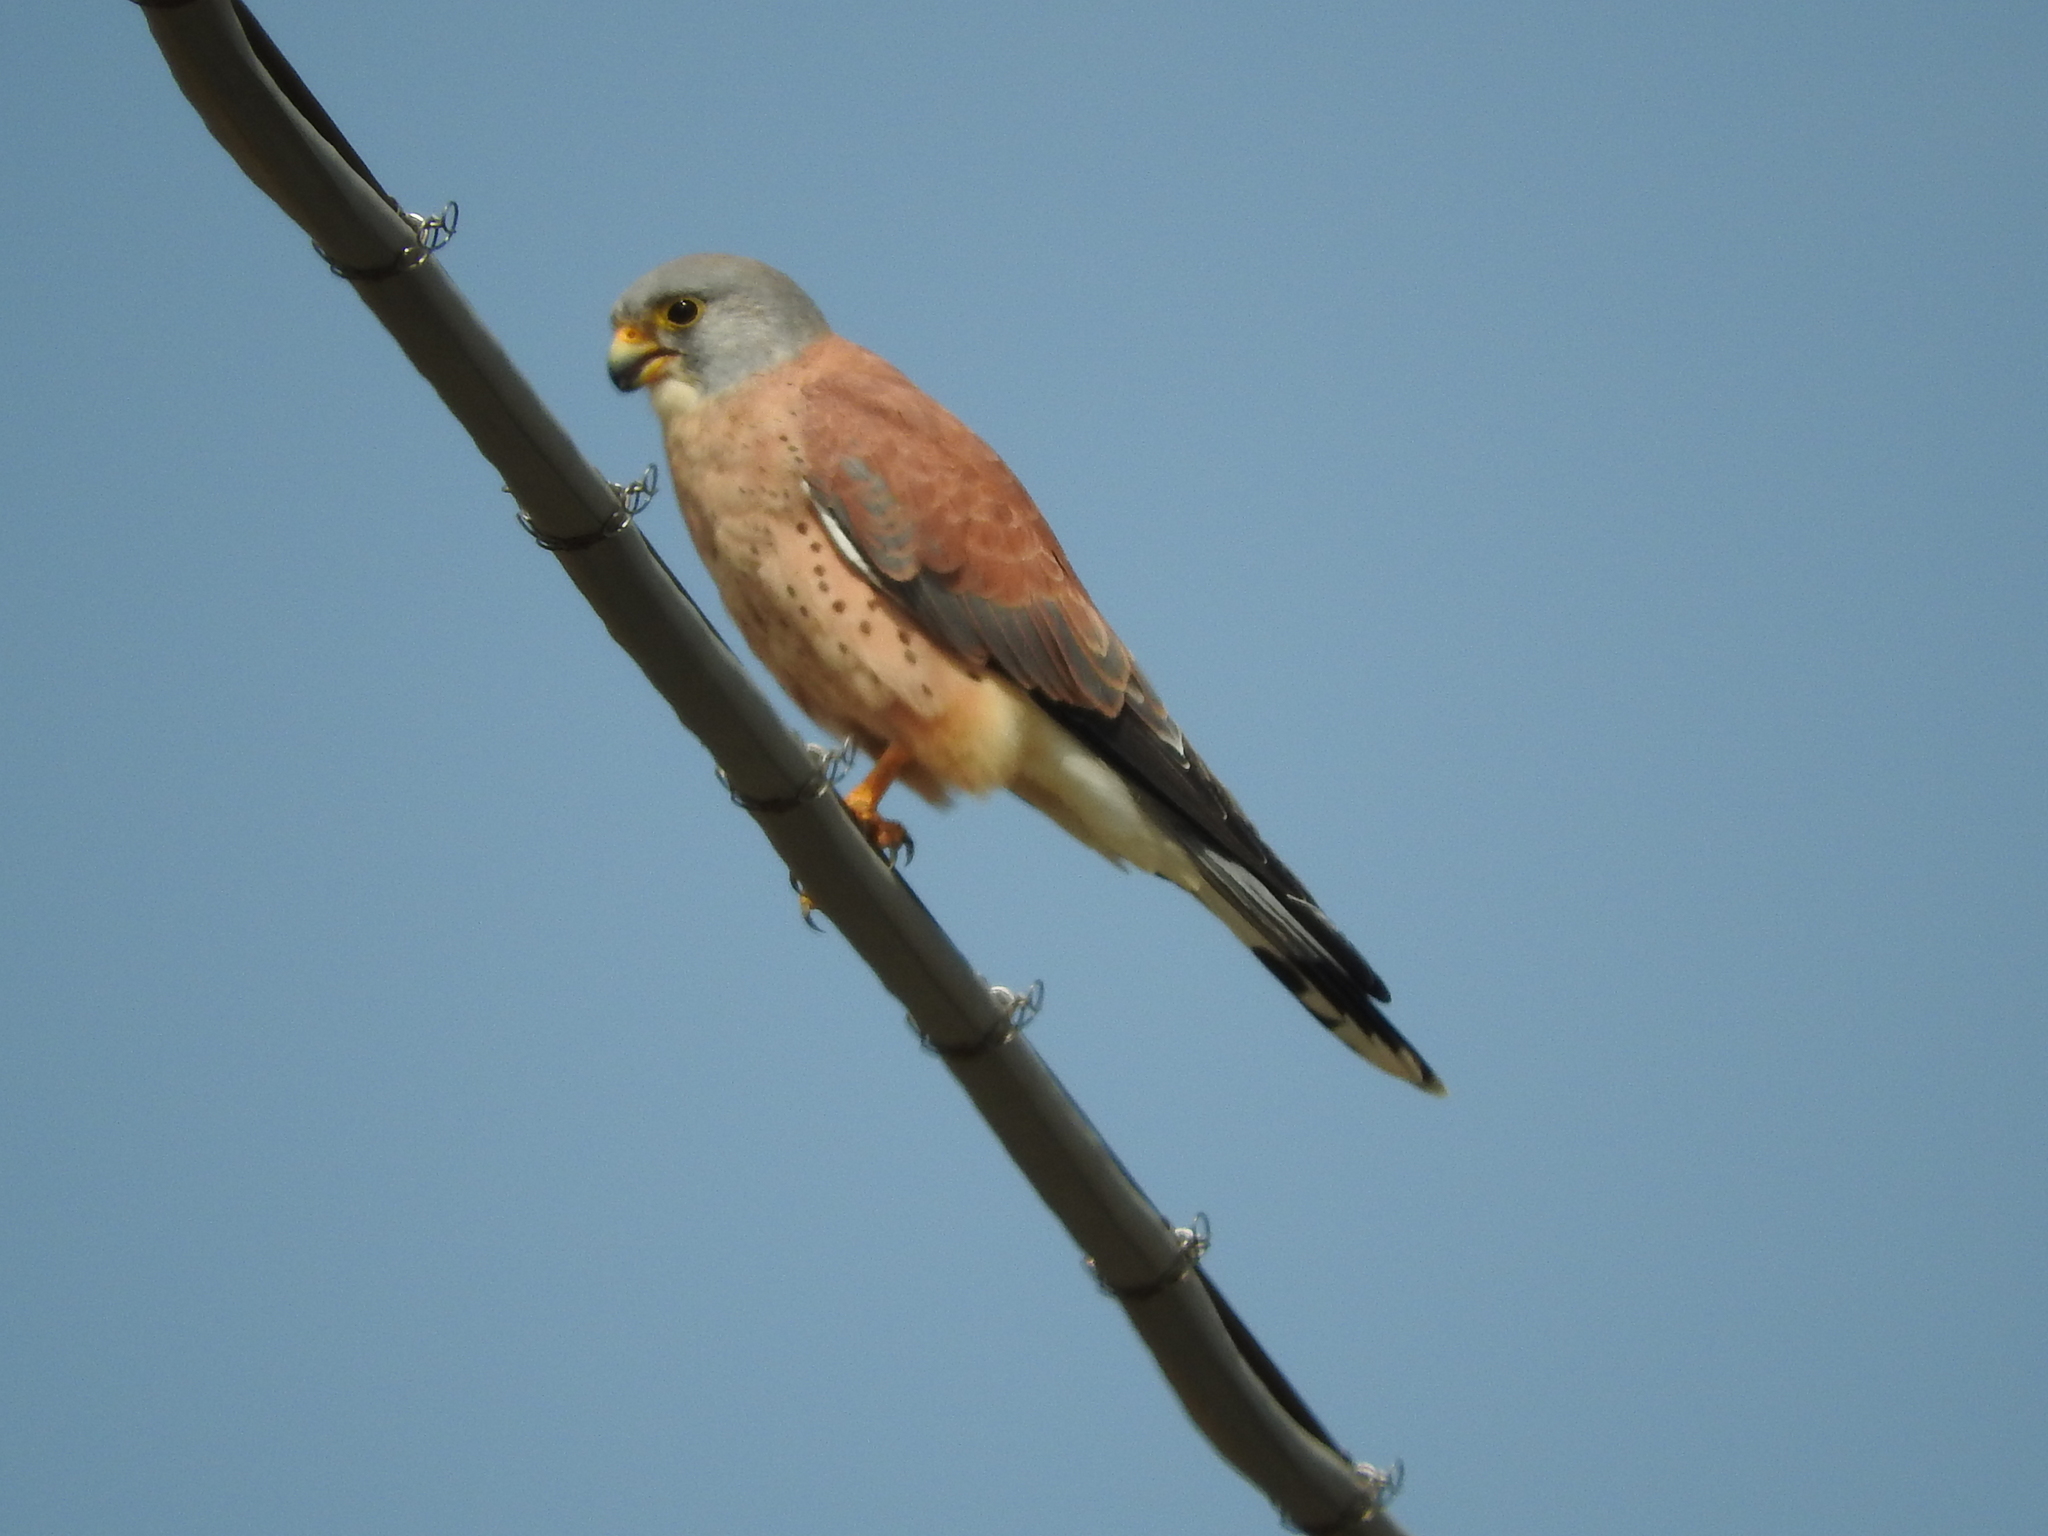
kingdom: Animalia
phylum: Chordata
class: Aves
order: Falconiformes
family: Falconidae
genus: Falco
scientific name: Falco naumanni
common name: Lesser kestrel
